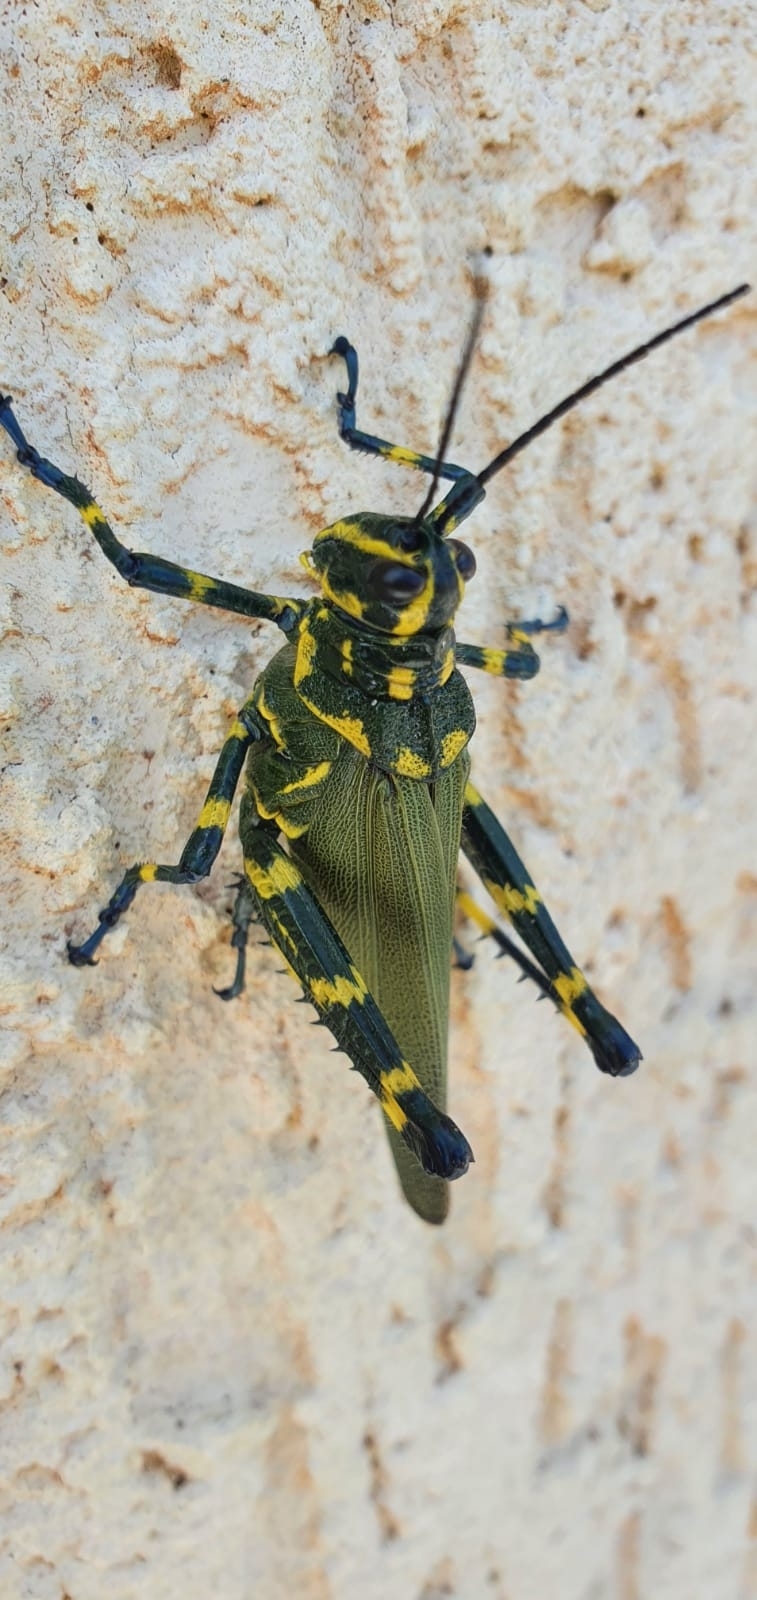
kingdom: Animalia
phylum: Arthropoda
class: Insecta
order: Orthoptera
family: Romaleidae
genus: Chromacris
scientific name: Chromacris speciosa
